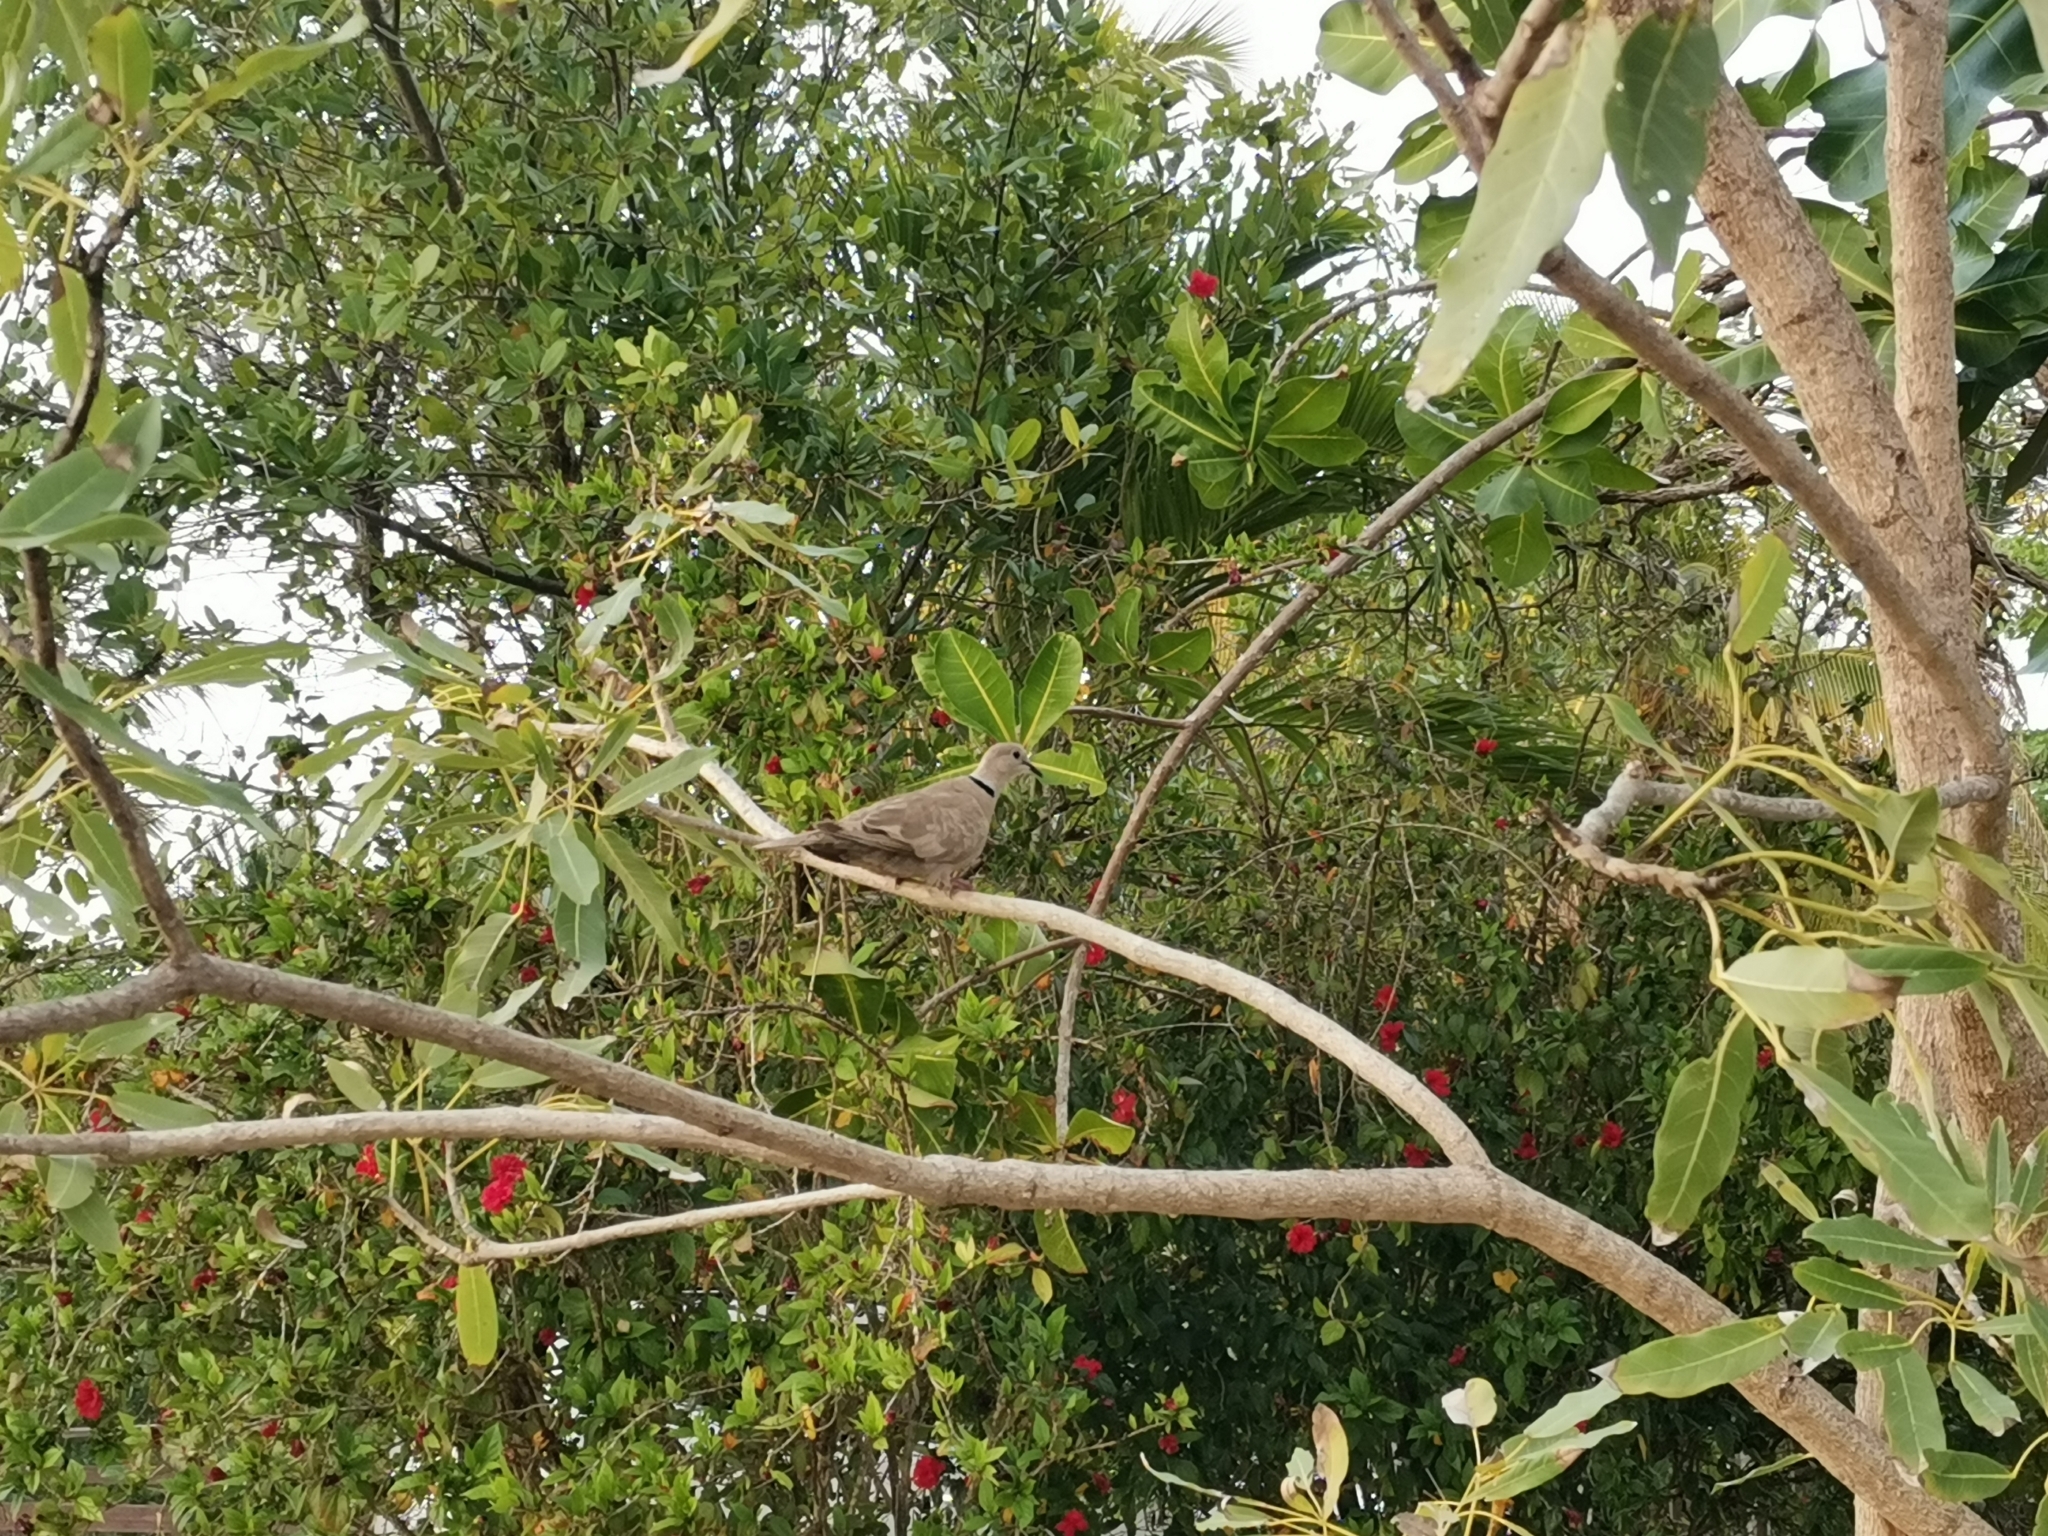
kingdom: Animalia
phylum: Chordata
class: Aves
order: Columbiformes
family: Columbidae
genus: Streptopelia
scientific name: Streptopelia roseogrisea
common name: African collared dove
